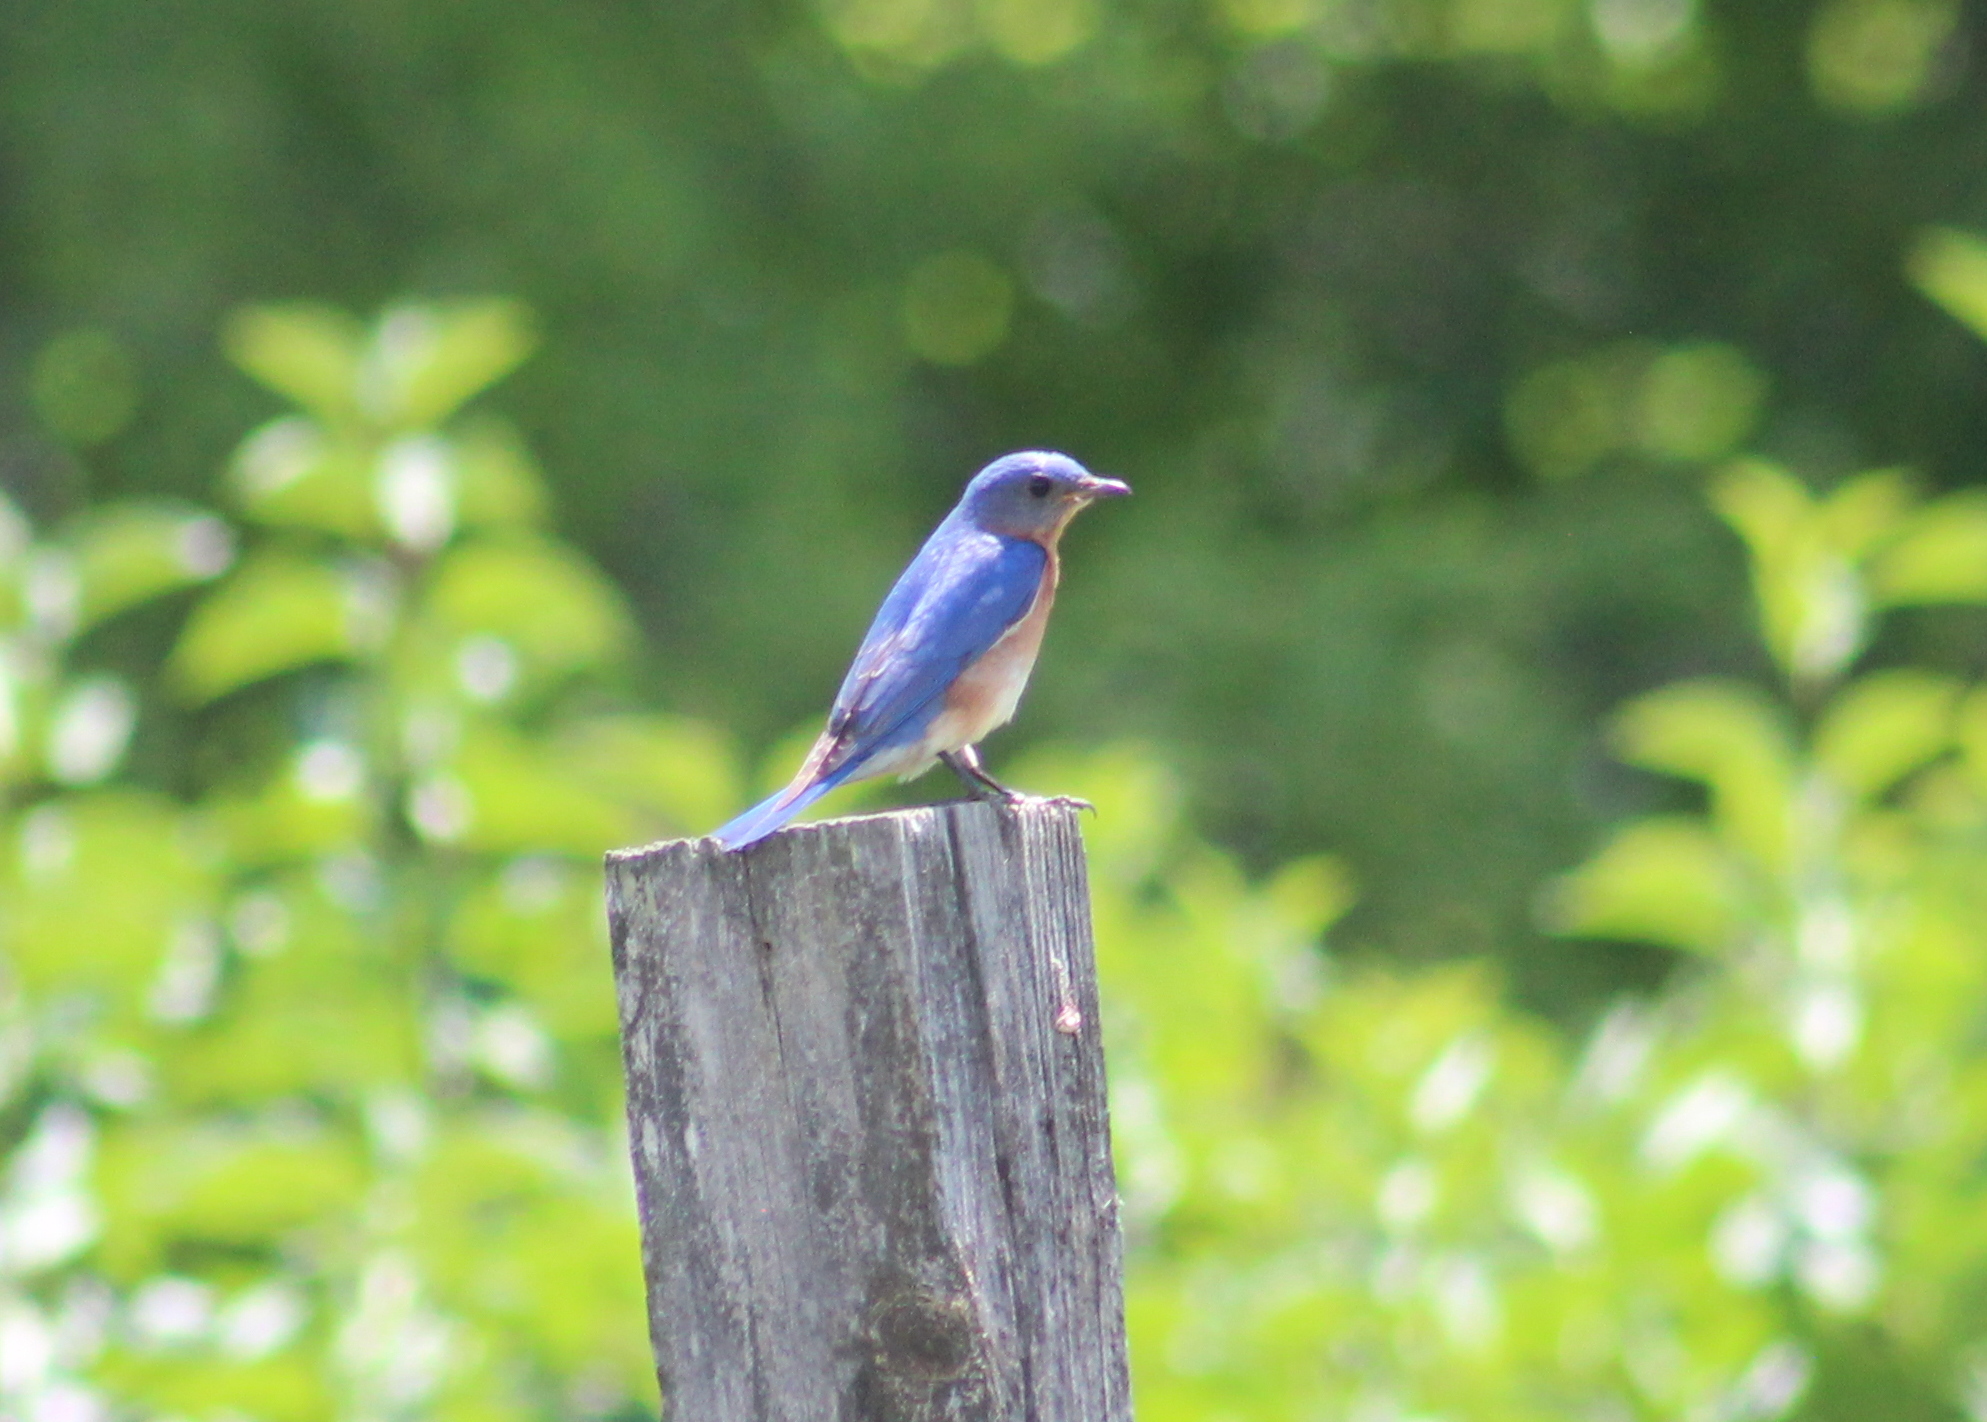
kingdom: Animalia
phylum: Chordata
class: Aves
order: Passeriformes
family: Turdidae
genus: Sialia
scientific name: Sialia sialis
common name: Eastern bluebird
